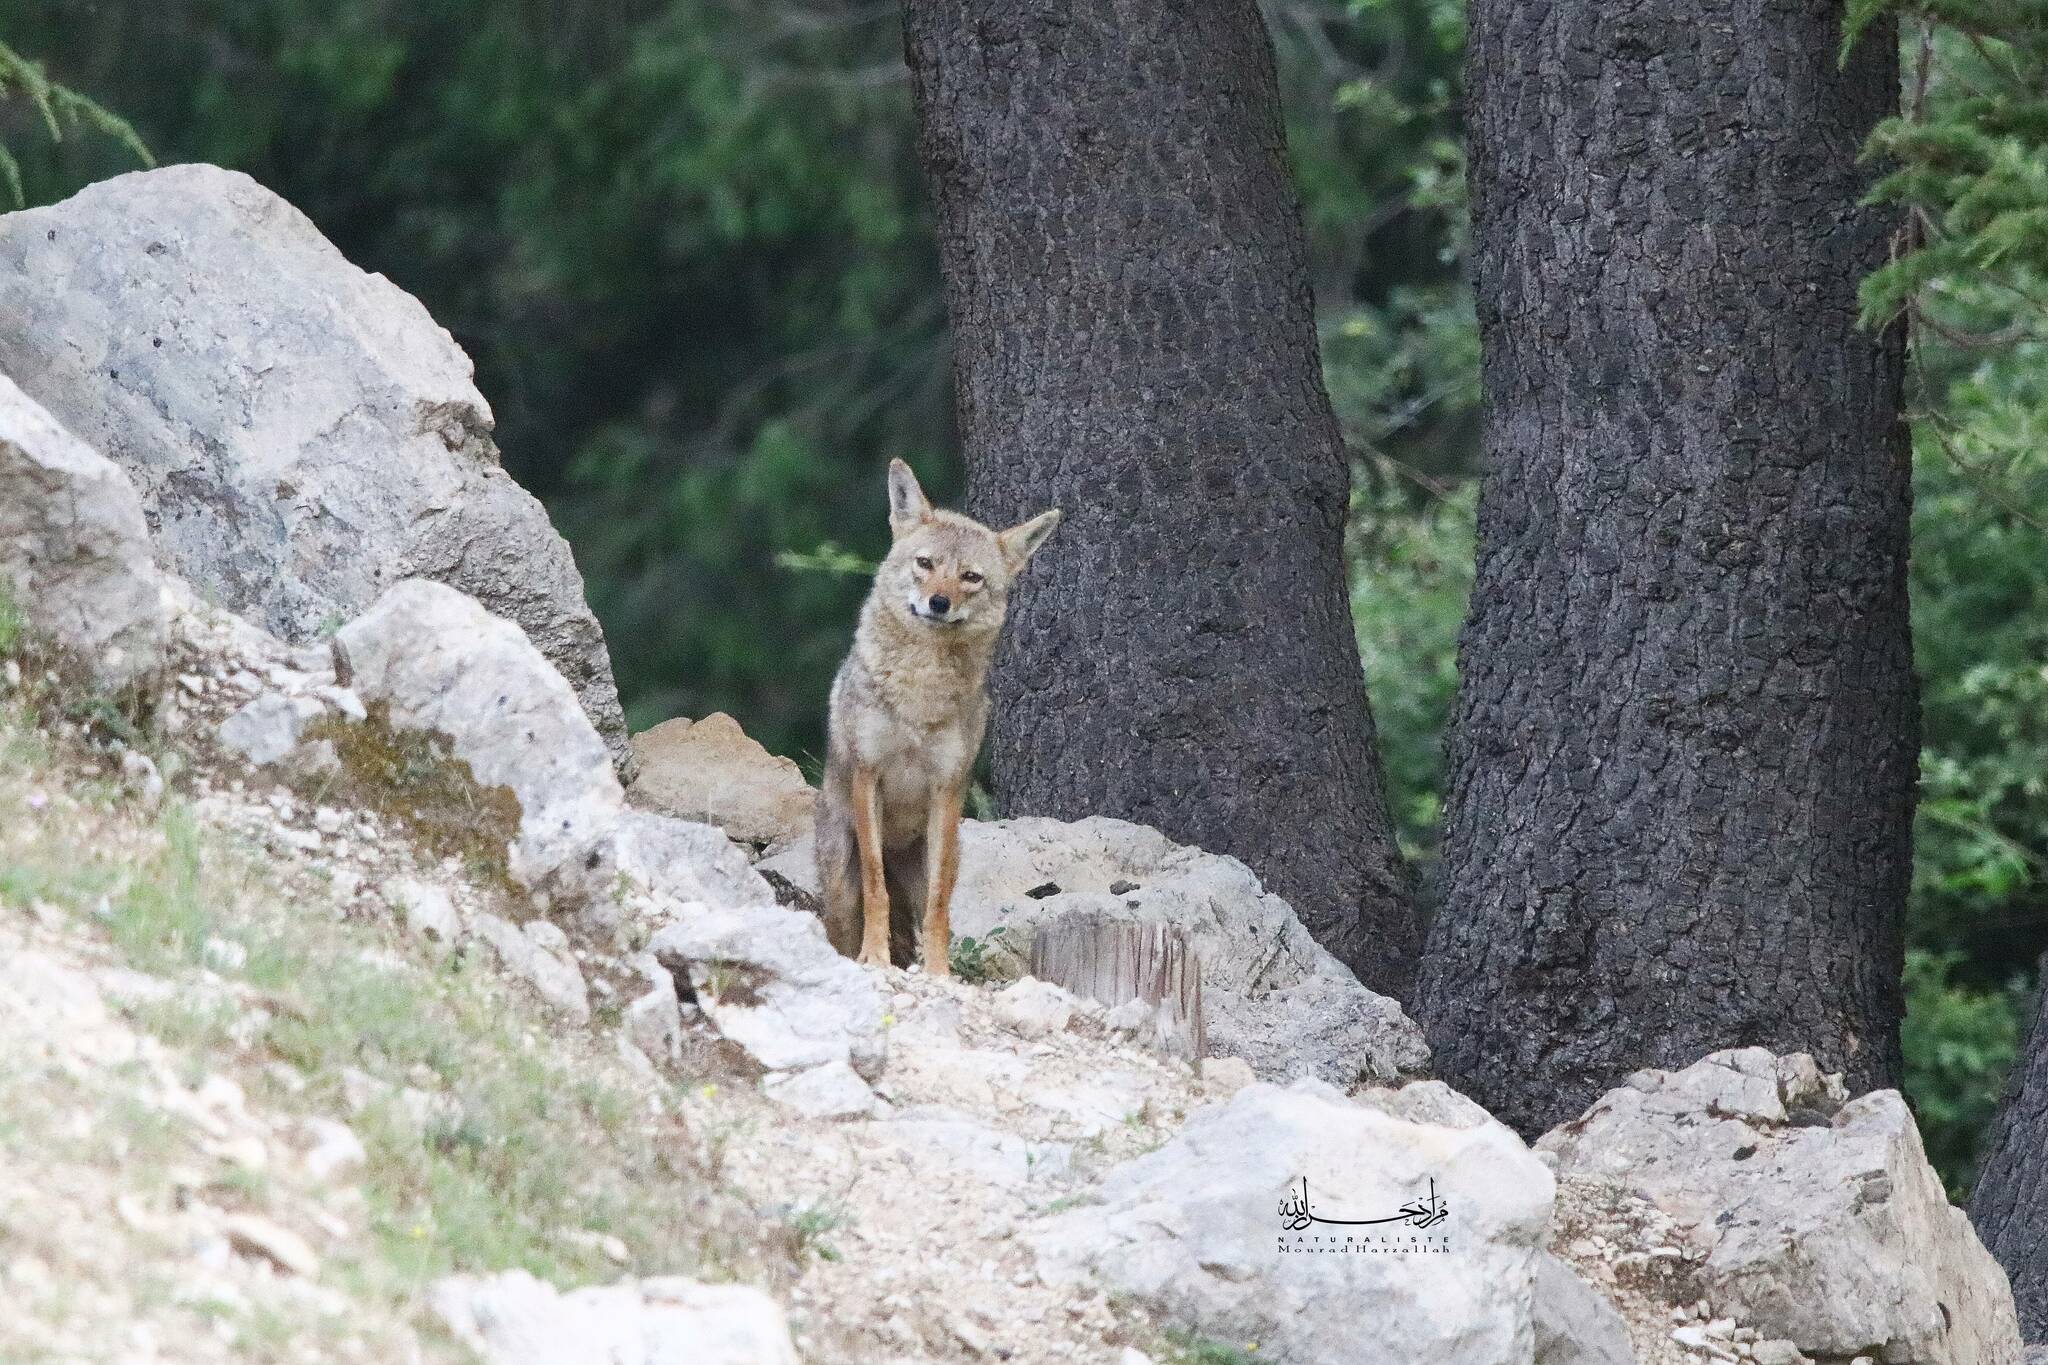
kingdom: Animalia
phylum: Chordata
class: Mammalia
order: Carnivora
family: Canidae
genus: Canis
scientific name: Canis lupaster
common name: African golden wolf
